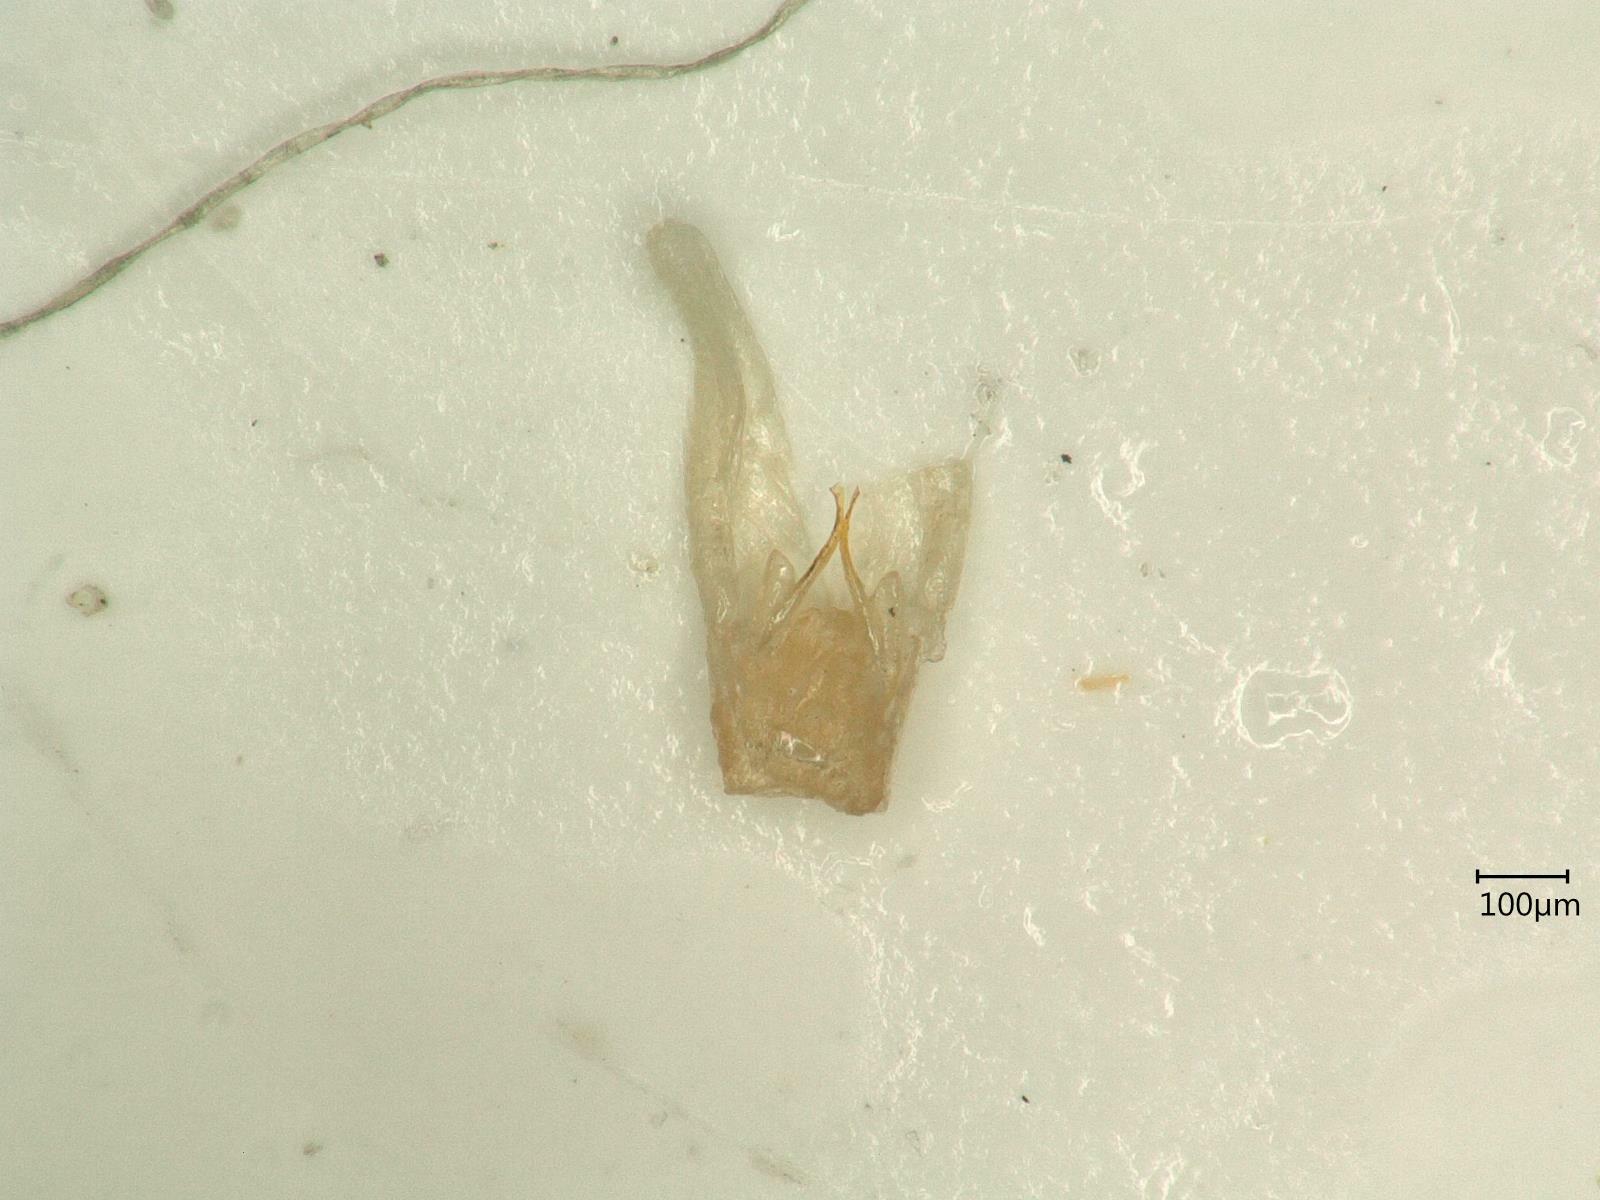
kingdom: Animalia
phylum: Arthropoda
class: Insecta
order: Hemiptera
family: Cicadellidae
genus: Alnetoidia
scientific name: Alnetoidia alneti
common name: Leafhopper
